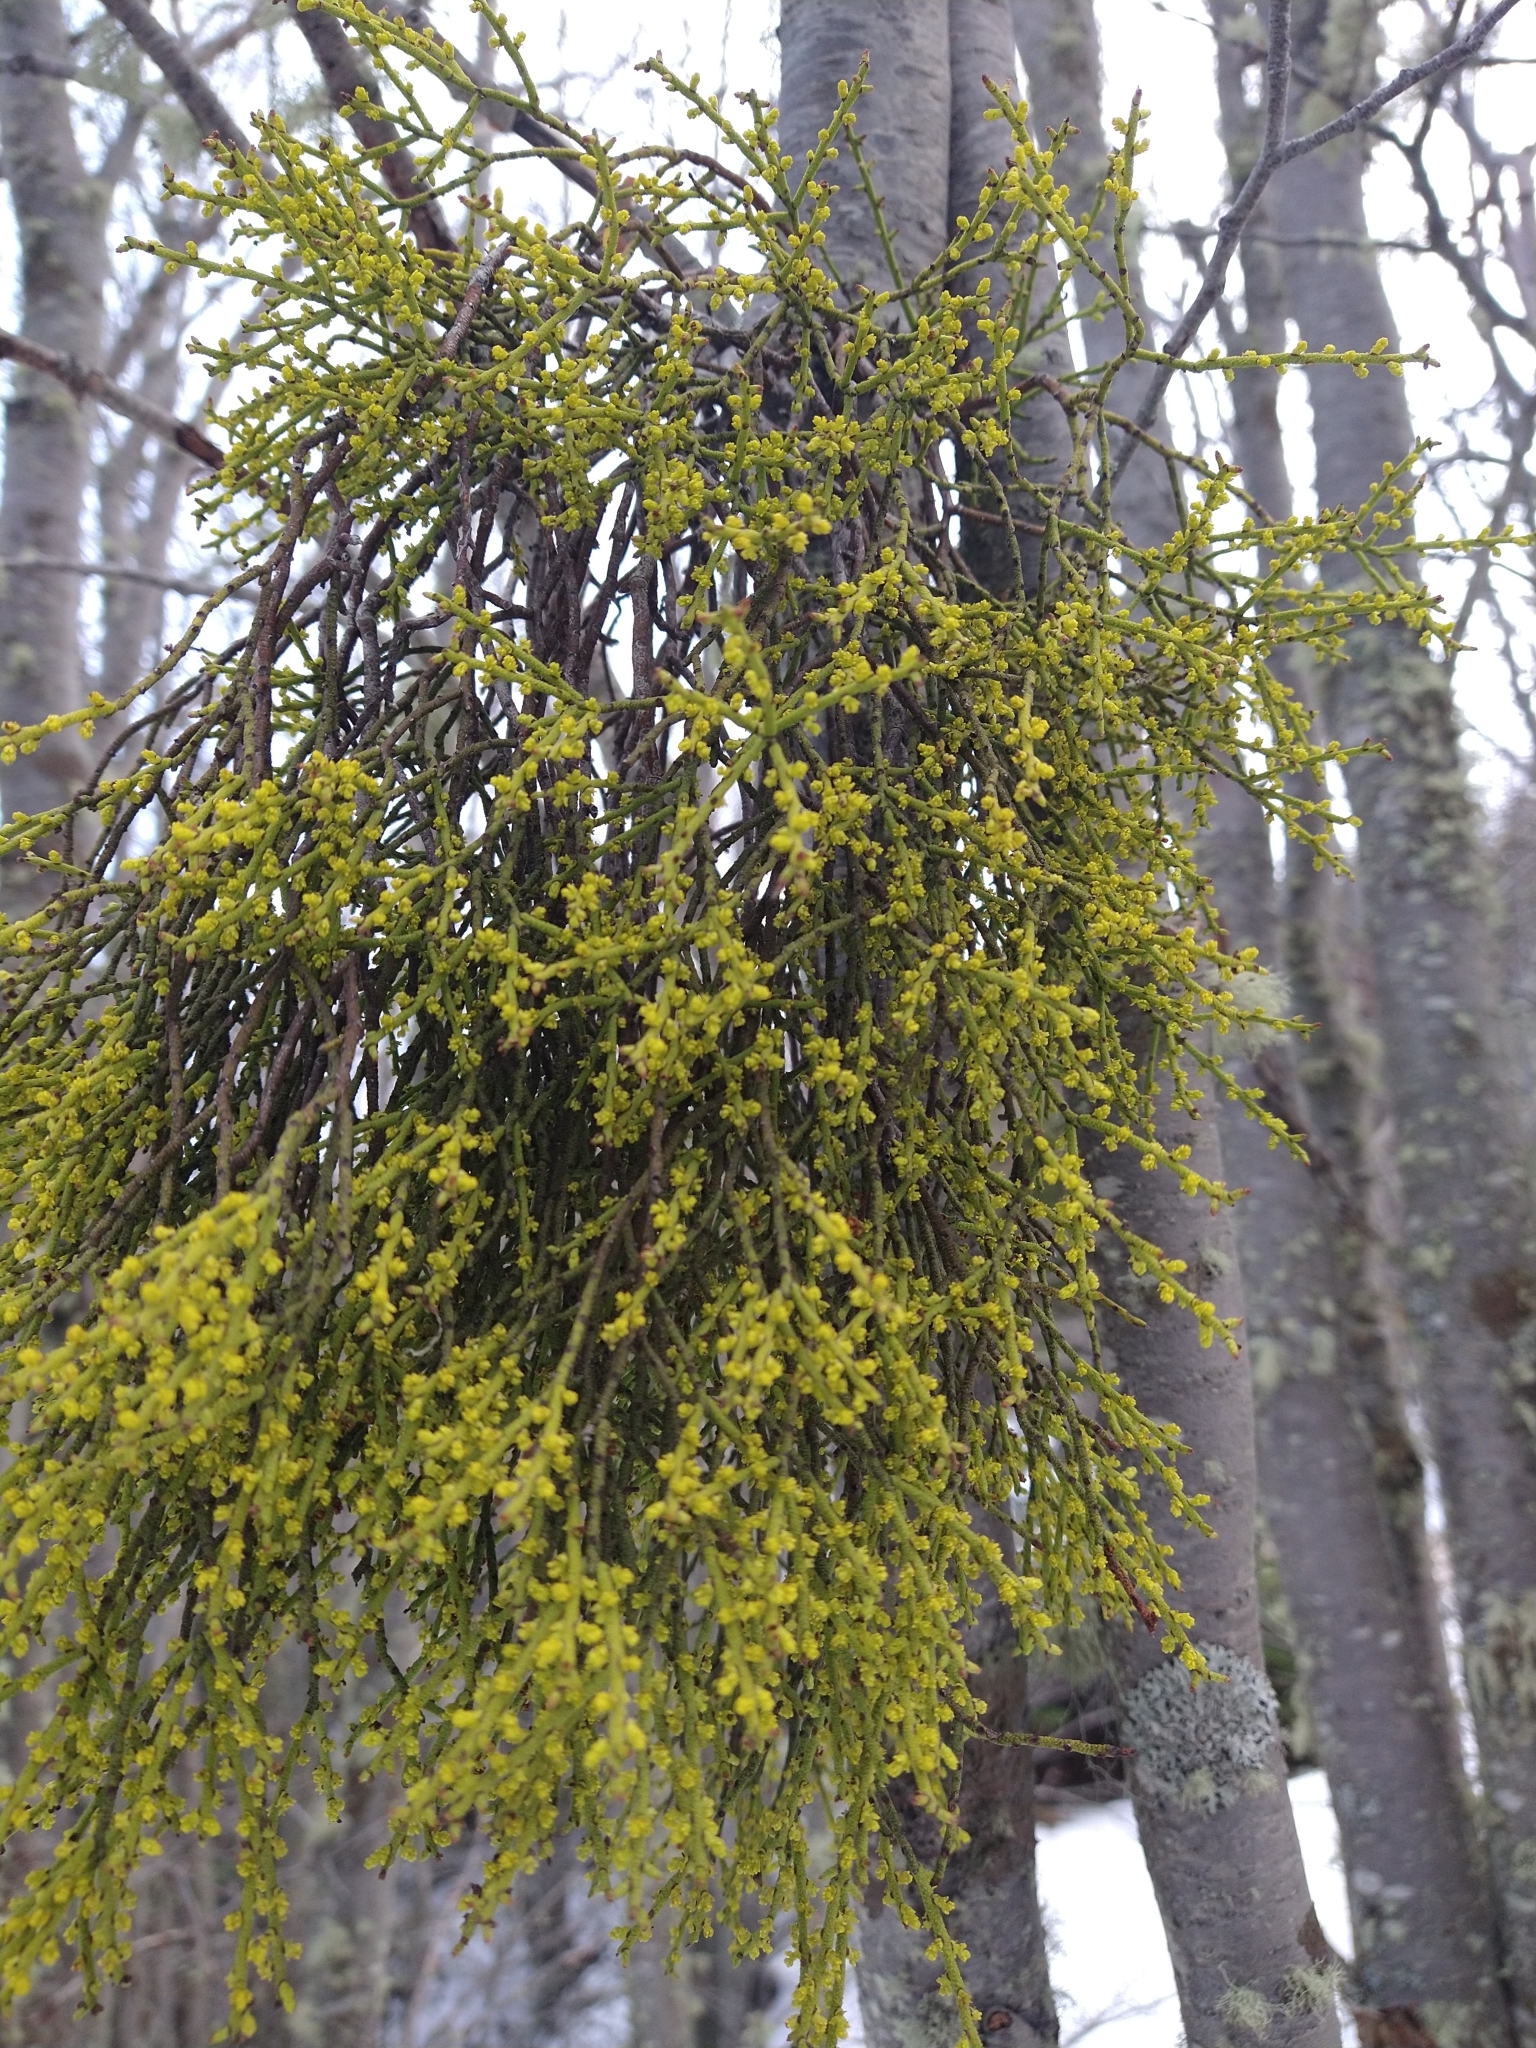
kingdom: Plantae
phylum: Tracheophyta
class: Magnoliopsida
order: Santalales
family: Misodendraceae
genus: Misodendrum
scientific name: Misodendrum punctulatum
